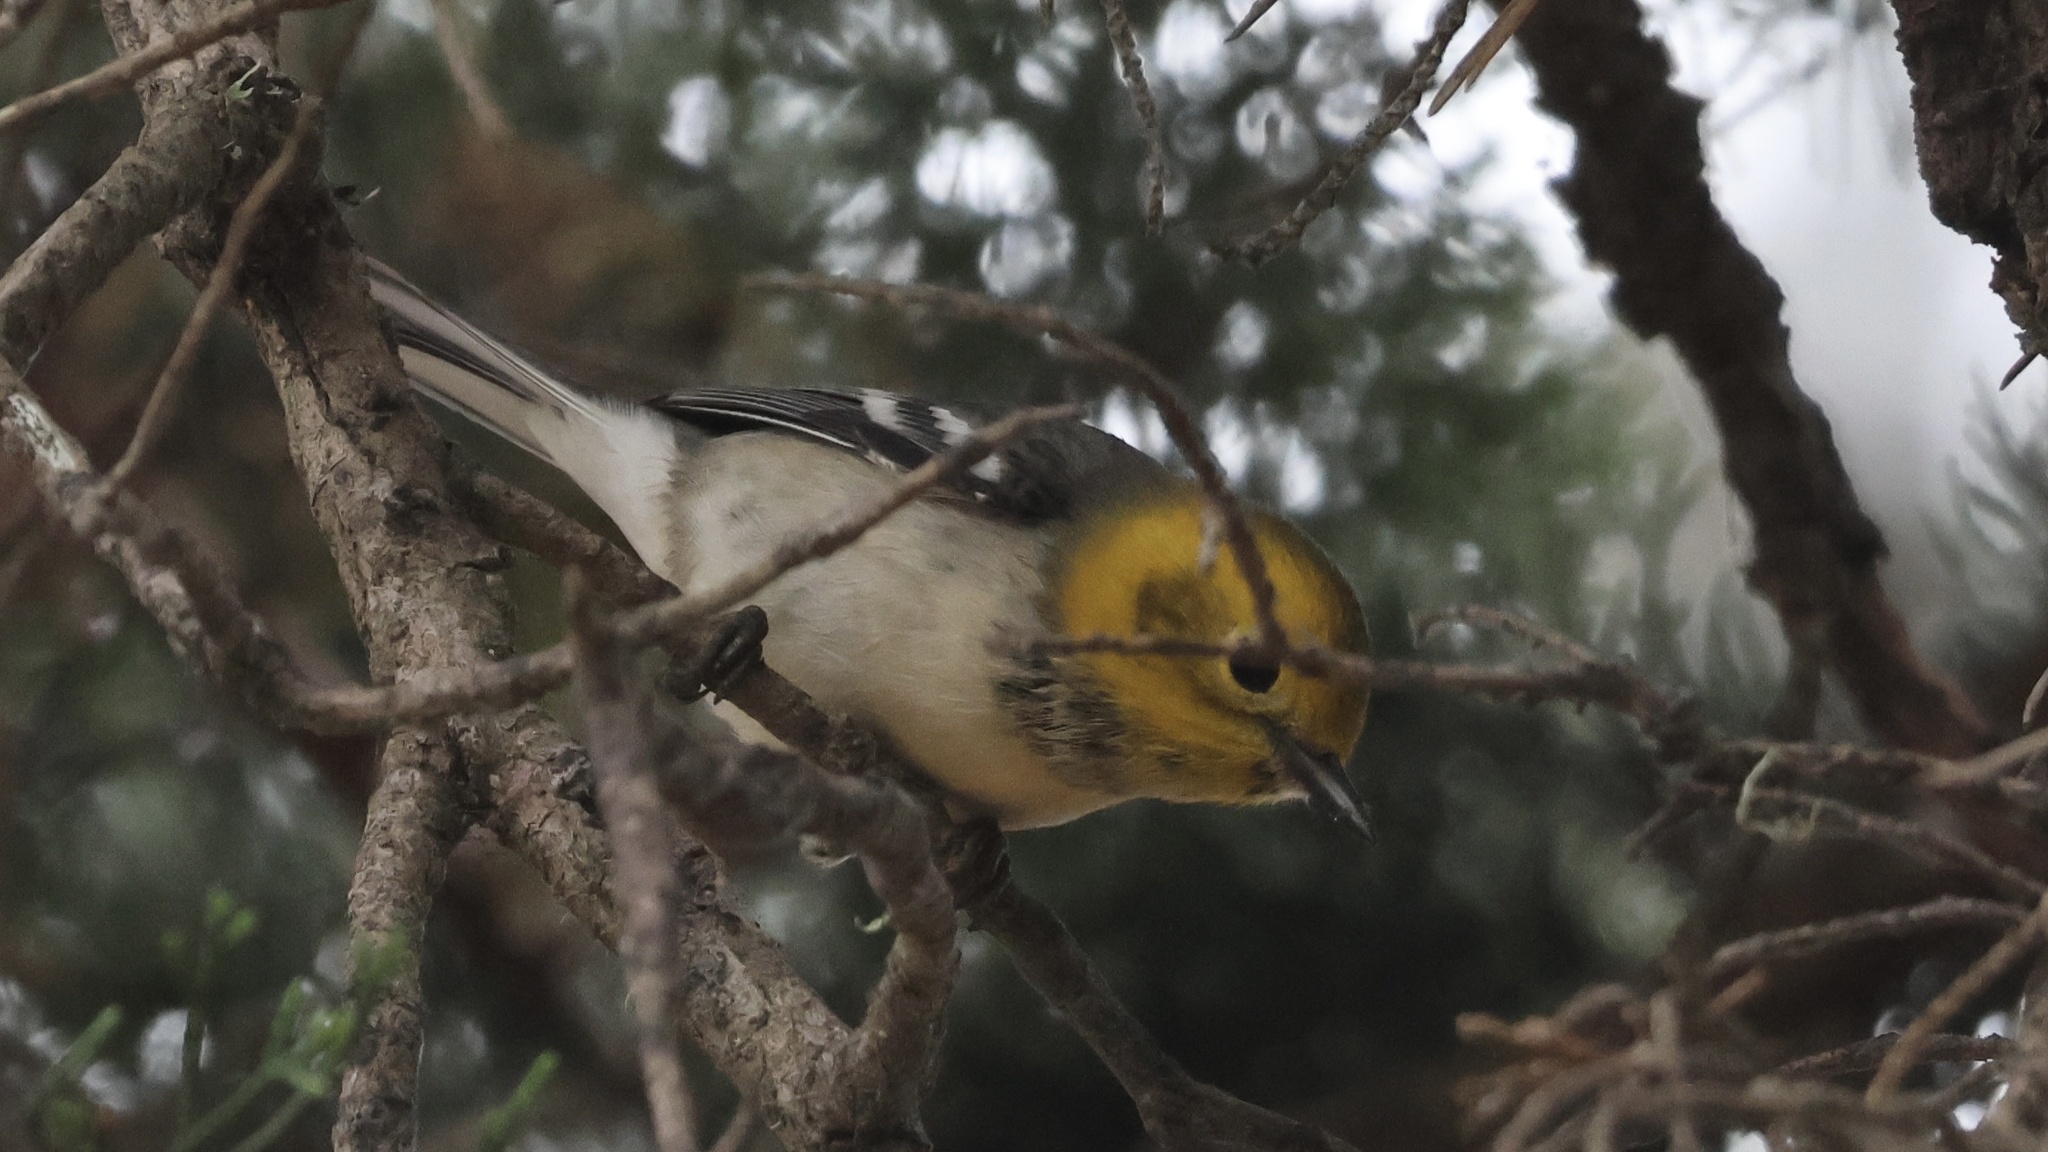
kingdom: Animalia
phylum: Chordata
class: Aves
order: Passeriformes
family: Parulidae
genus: Setophaga
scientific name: Setophaga occidentalis
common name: Hermit warbler
